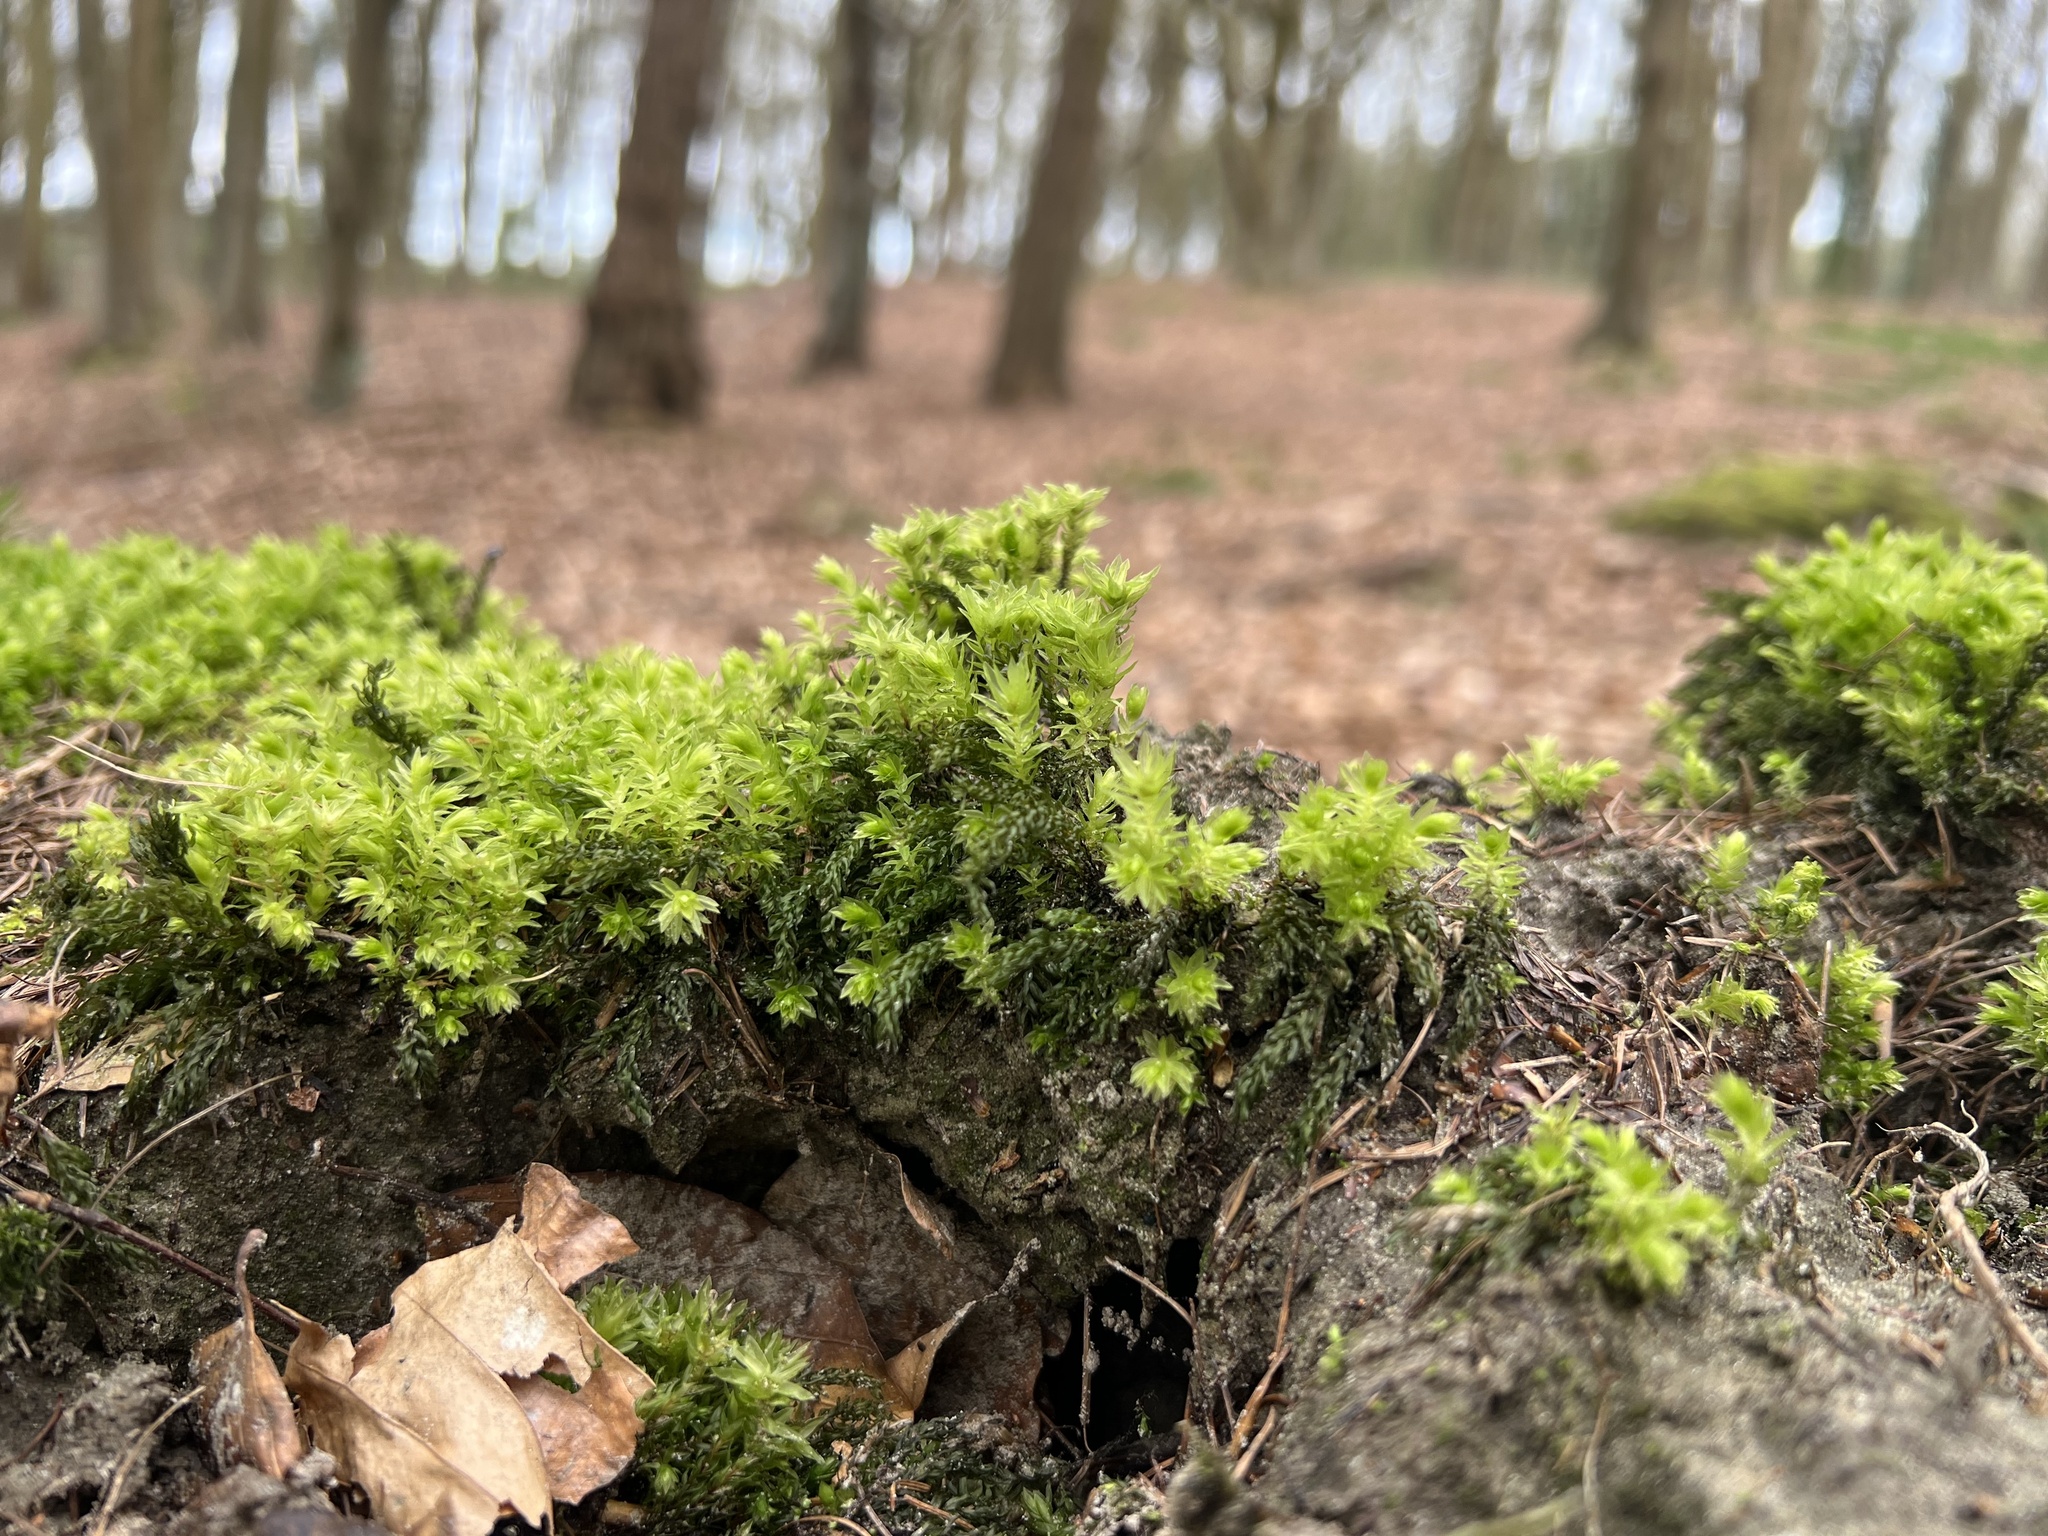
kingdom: Plantae
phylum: Bryophyta
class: Bryopsida
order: Bryales
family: Mniaceae
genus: Mnium
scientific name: Mnium hornum
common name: Swan's-neck leafy moss
